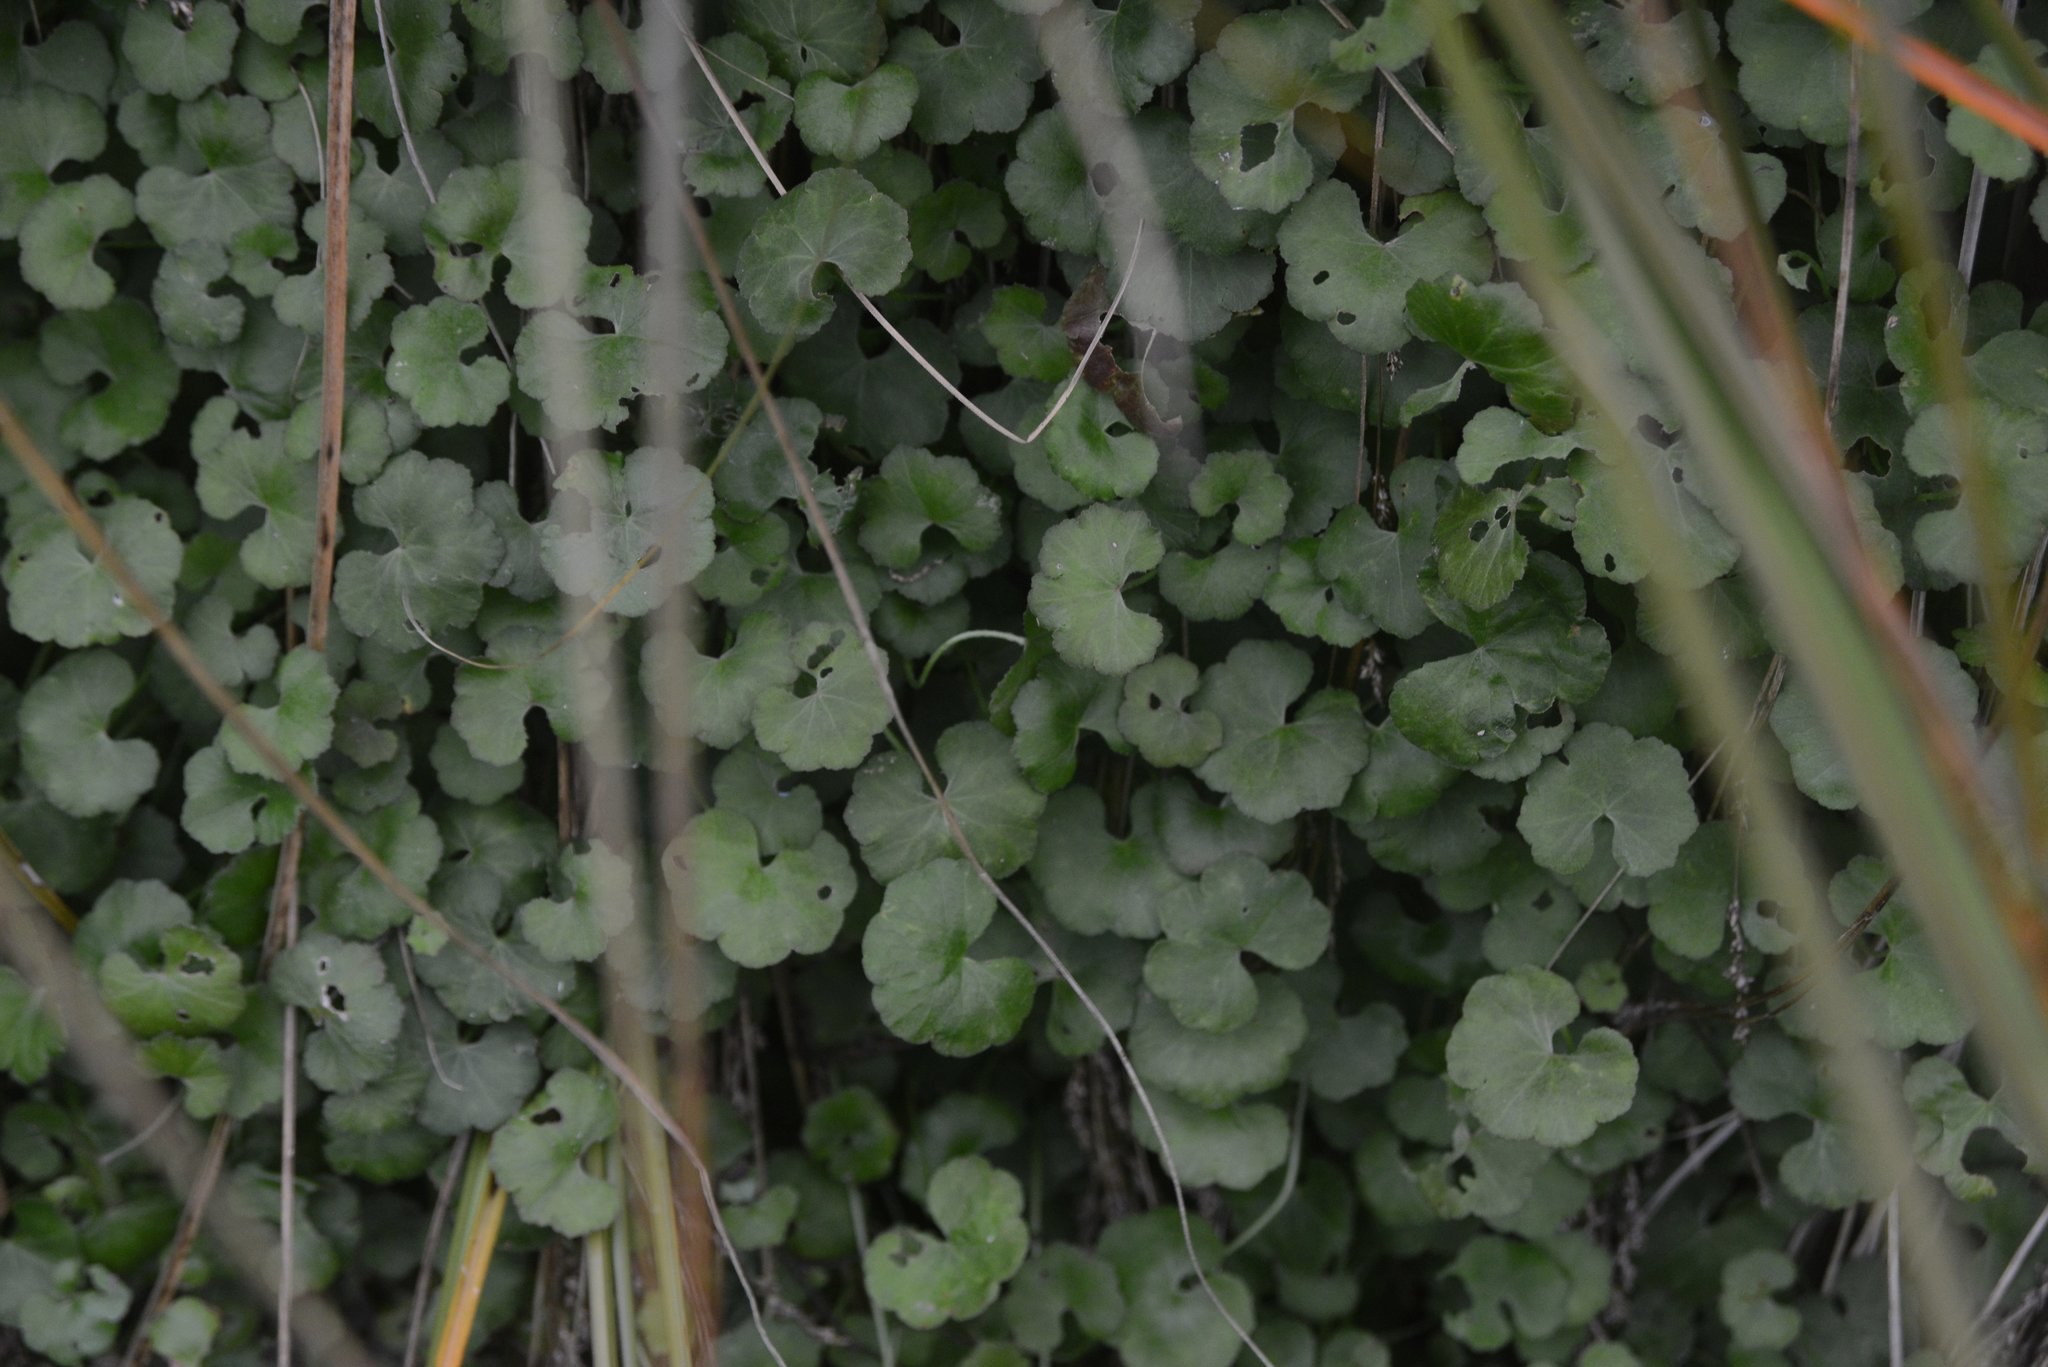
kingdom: Plantae
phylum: Tracheophyta
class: Magnoliopsida
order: Apiales
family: Araliaceae
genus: Hydrocotyle
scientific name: Hydrocotyle robusta
